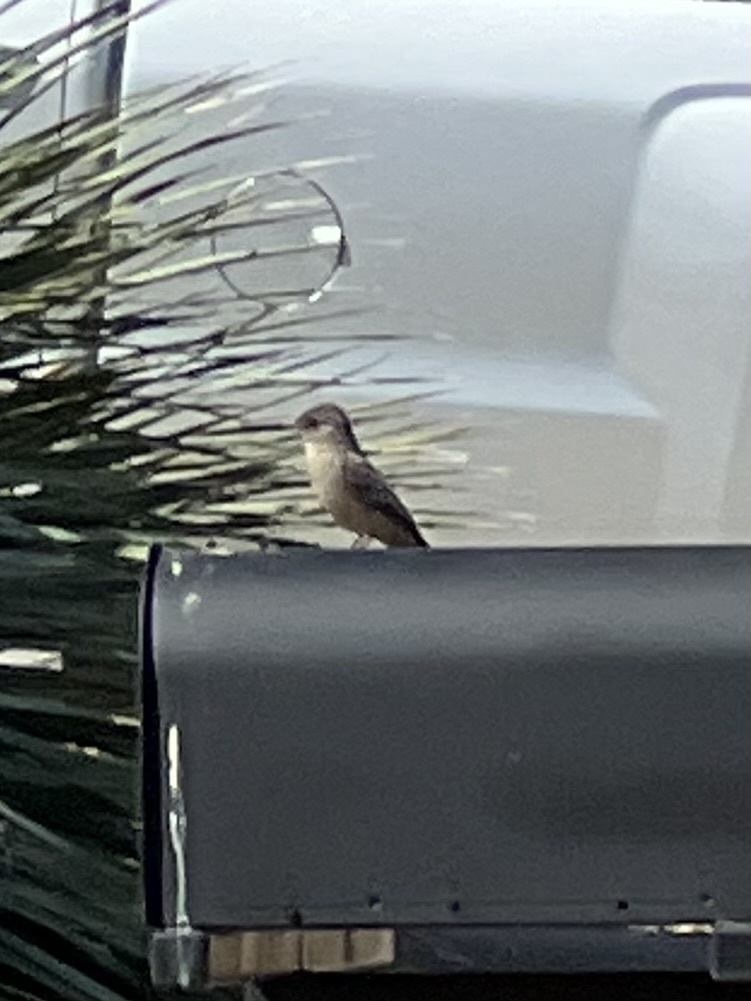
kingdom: Animalia
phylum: Chordata
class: Aves
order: Passeriformes
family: Tyrannidae
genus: Sayornis
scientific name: Sayornis saya
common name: Say's phoebe
